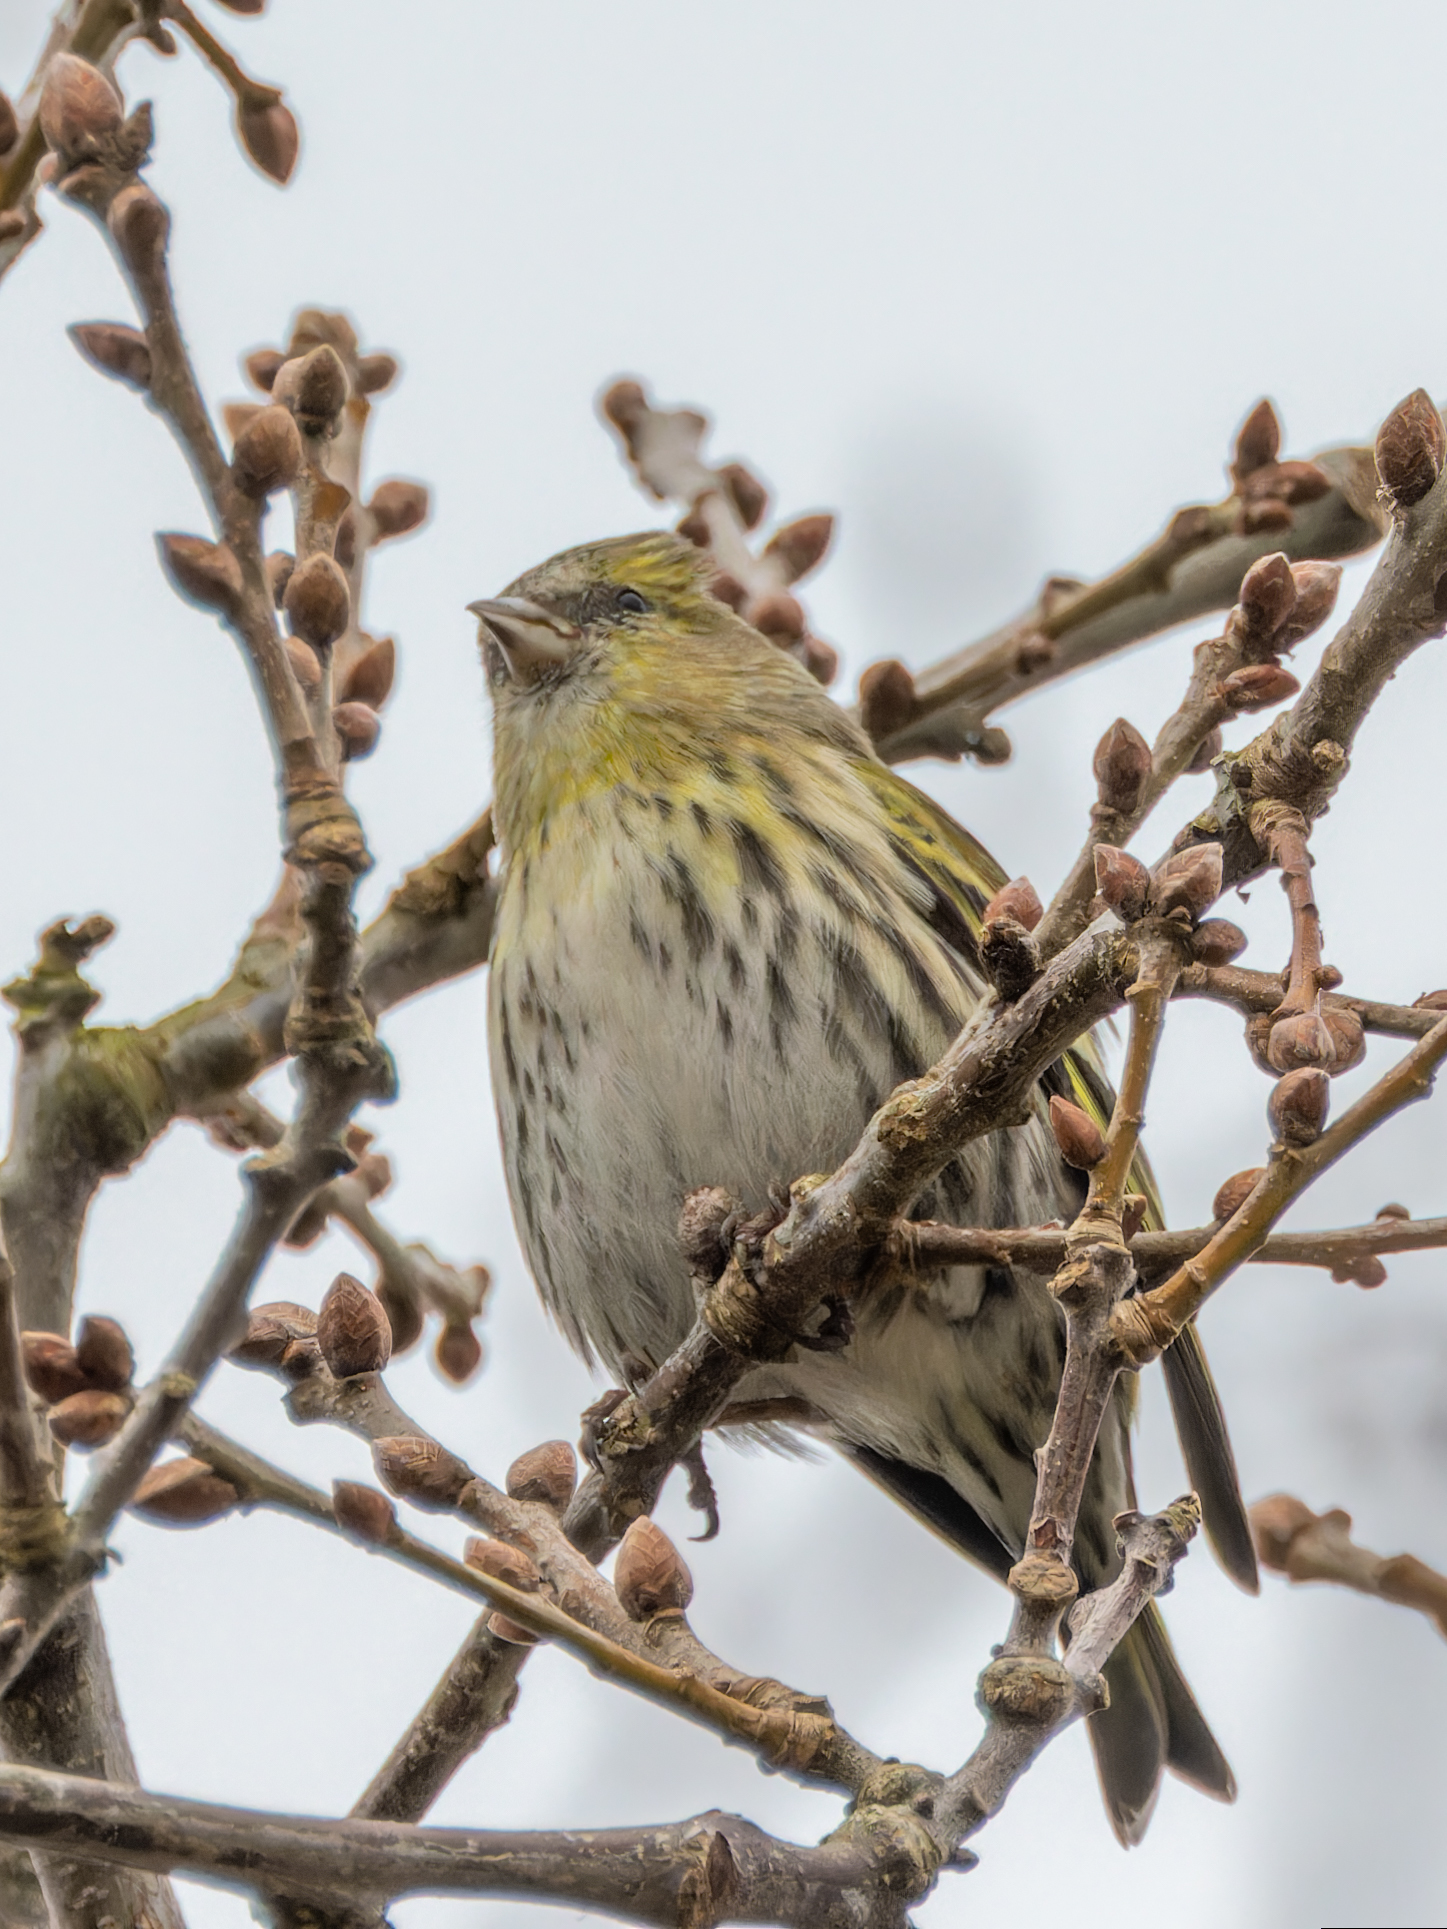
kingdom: Animalia
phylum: Chordata
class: Aves
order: Passeriformes
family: Fringillidae
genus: Spinus
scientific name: Spinus spinus
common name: Eurasian siskin
